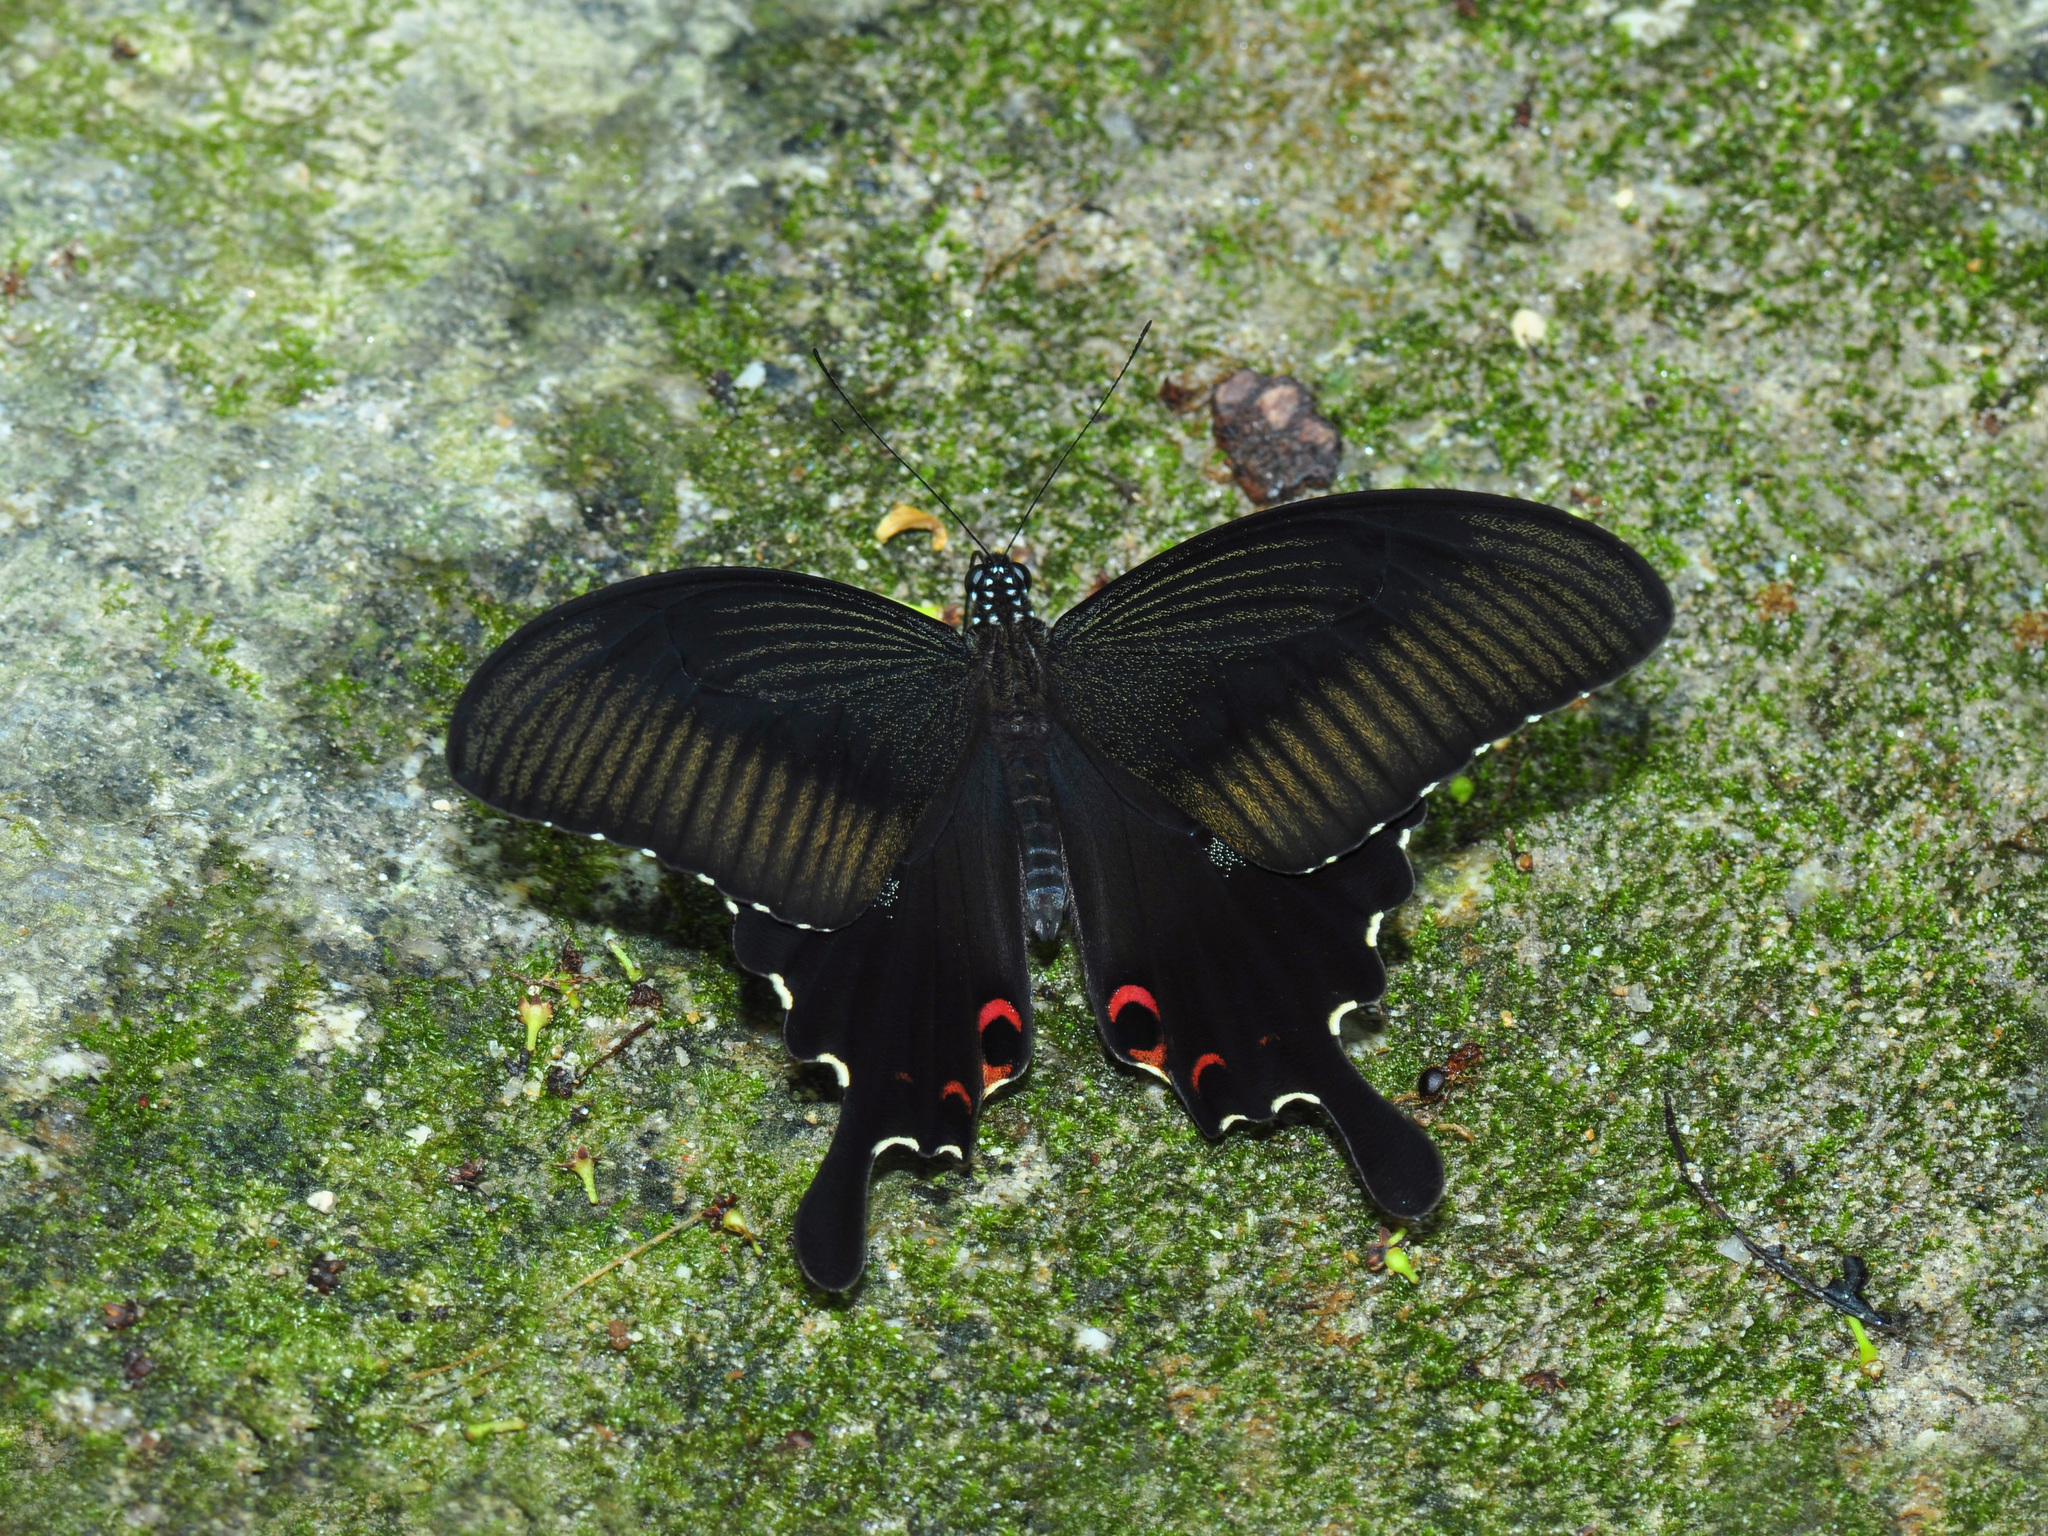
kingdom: Animalia
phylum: Arthropoda
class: Insecta
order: Lepidoptera
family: Papilionidae
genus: Papilio
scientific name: Papilio helenus
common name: Red helen
